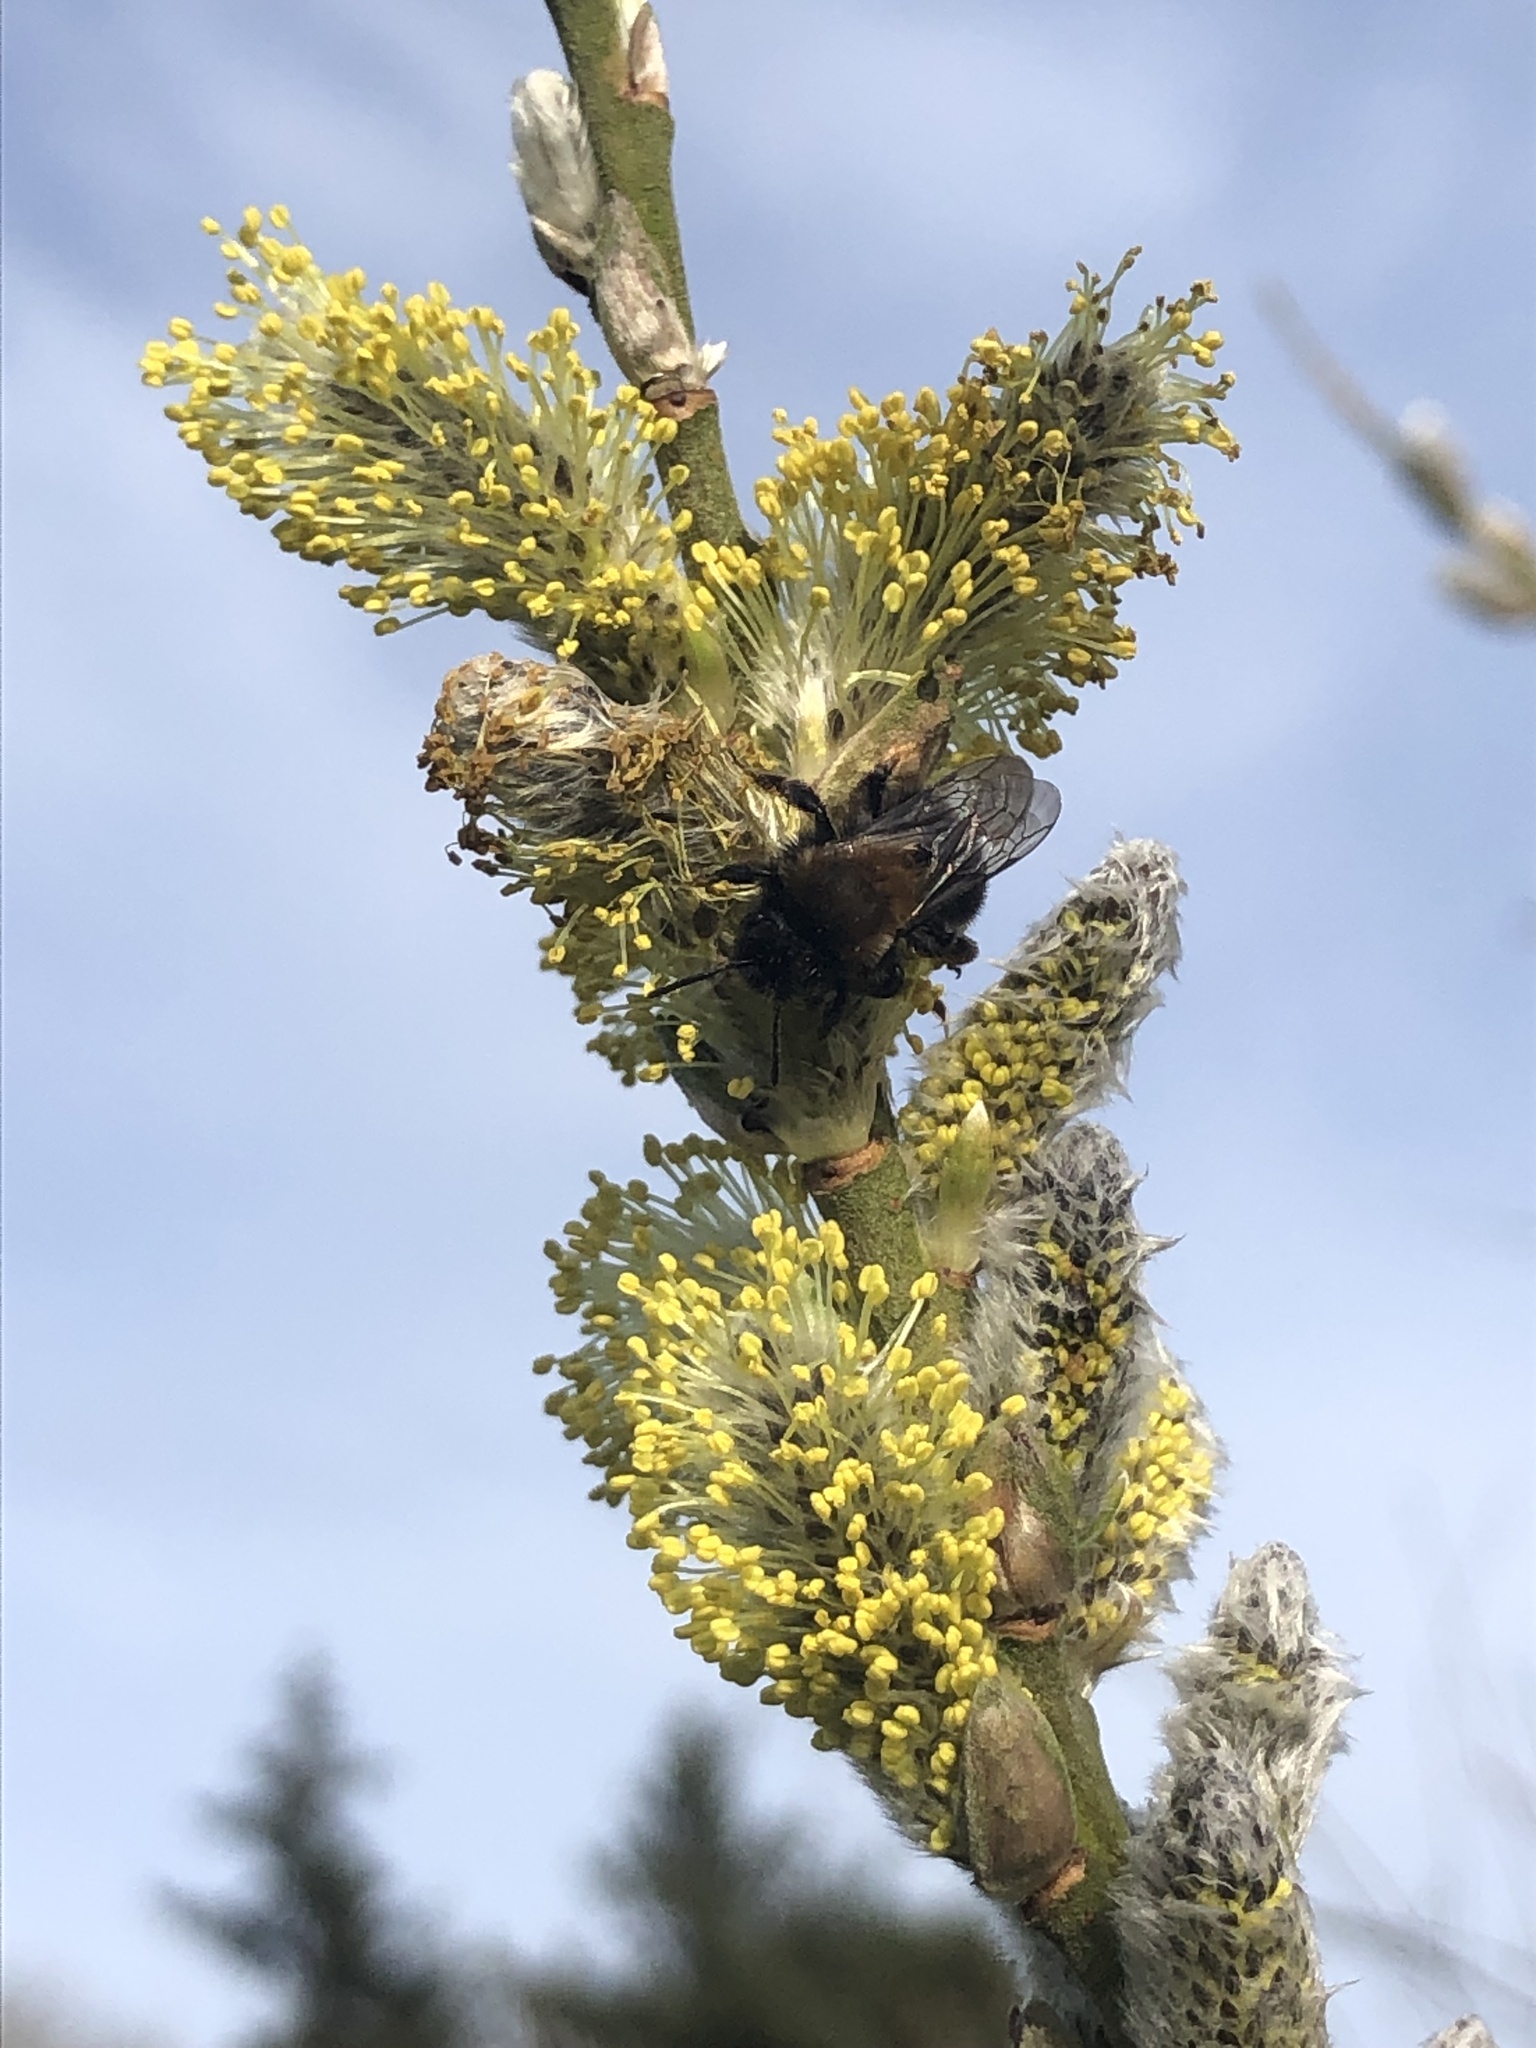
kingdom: Animalia
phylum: Arthropoda
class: Insecta
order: Hymenoptera
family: Andrenidae
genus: Andrena
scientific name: Andrena clarkella
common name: Clarke's mining bee
